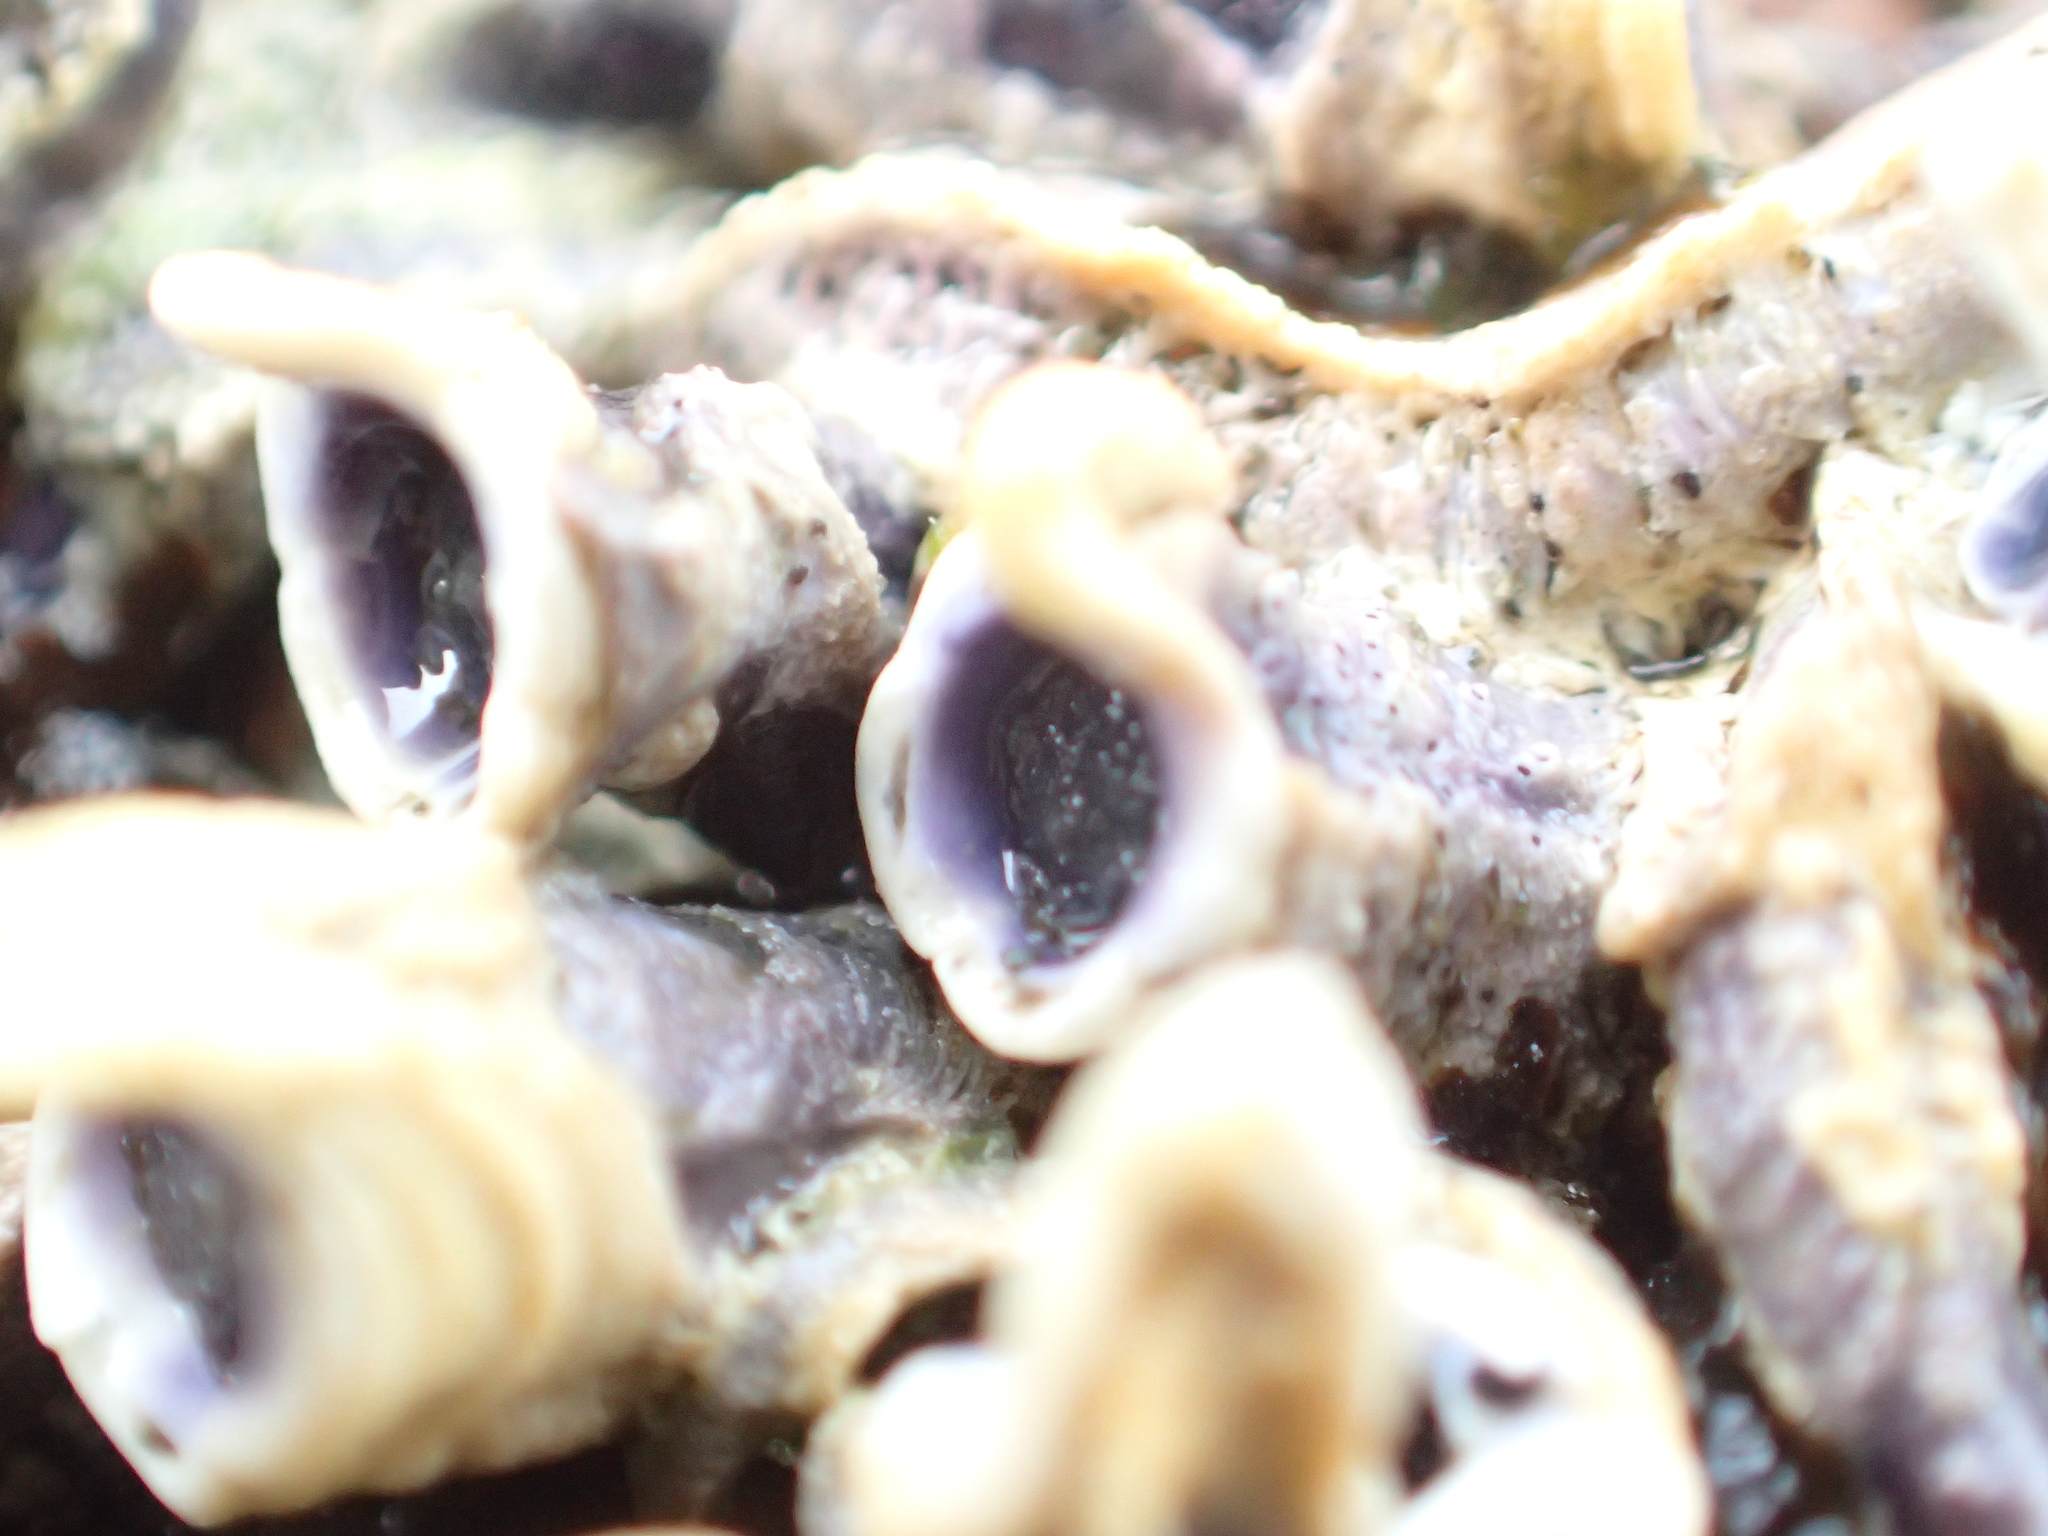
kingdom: Animalia
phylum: Annelida
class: Polychaeta
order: Sabellida
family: Serpulidae
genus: Spirobranchus
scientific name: Spirobranchus cariniferus
